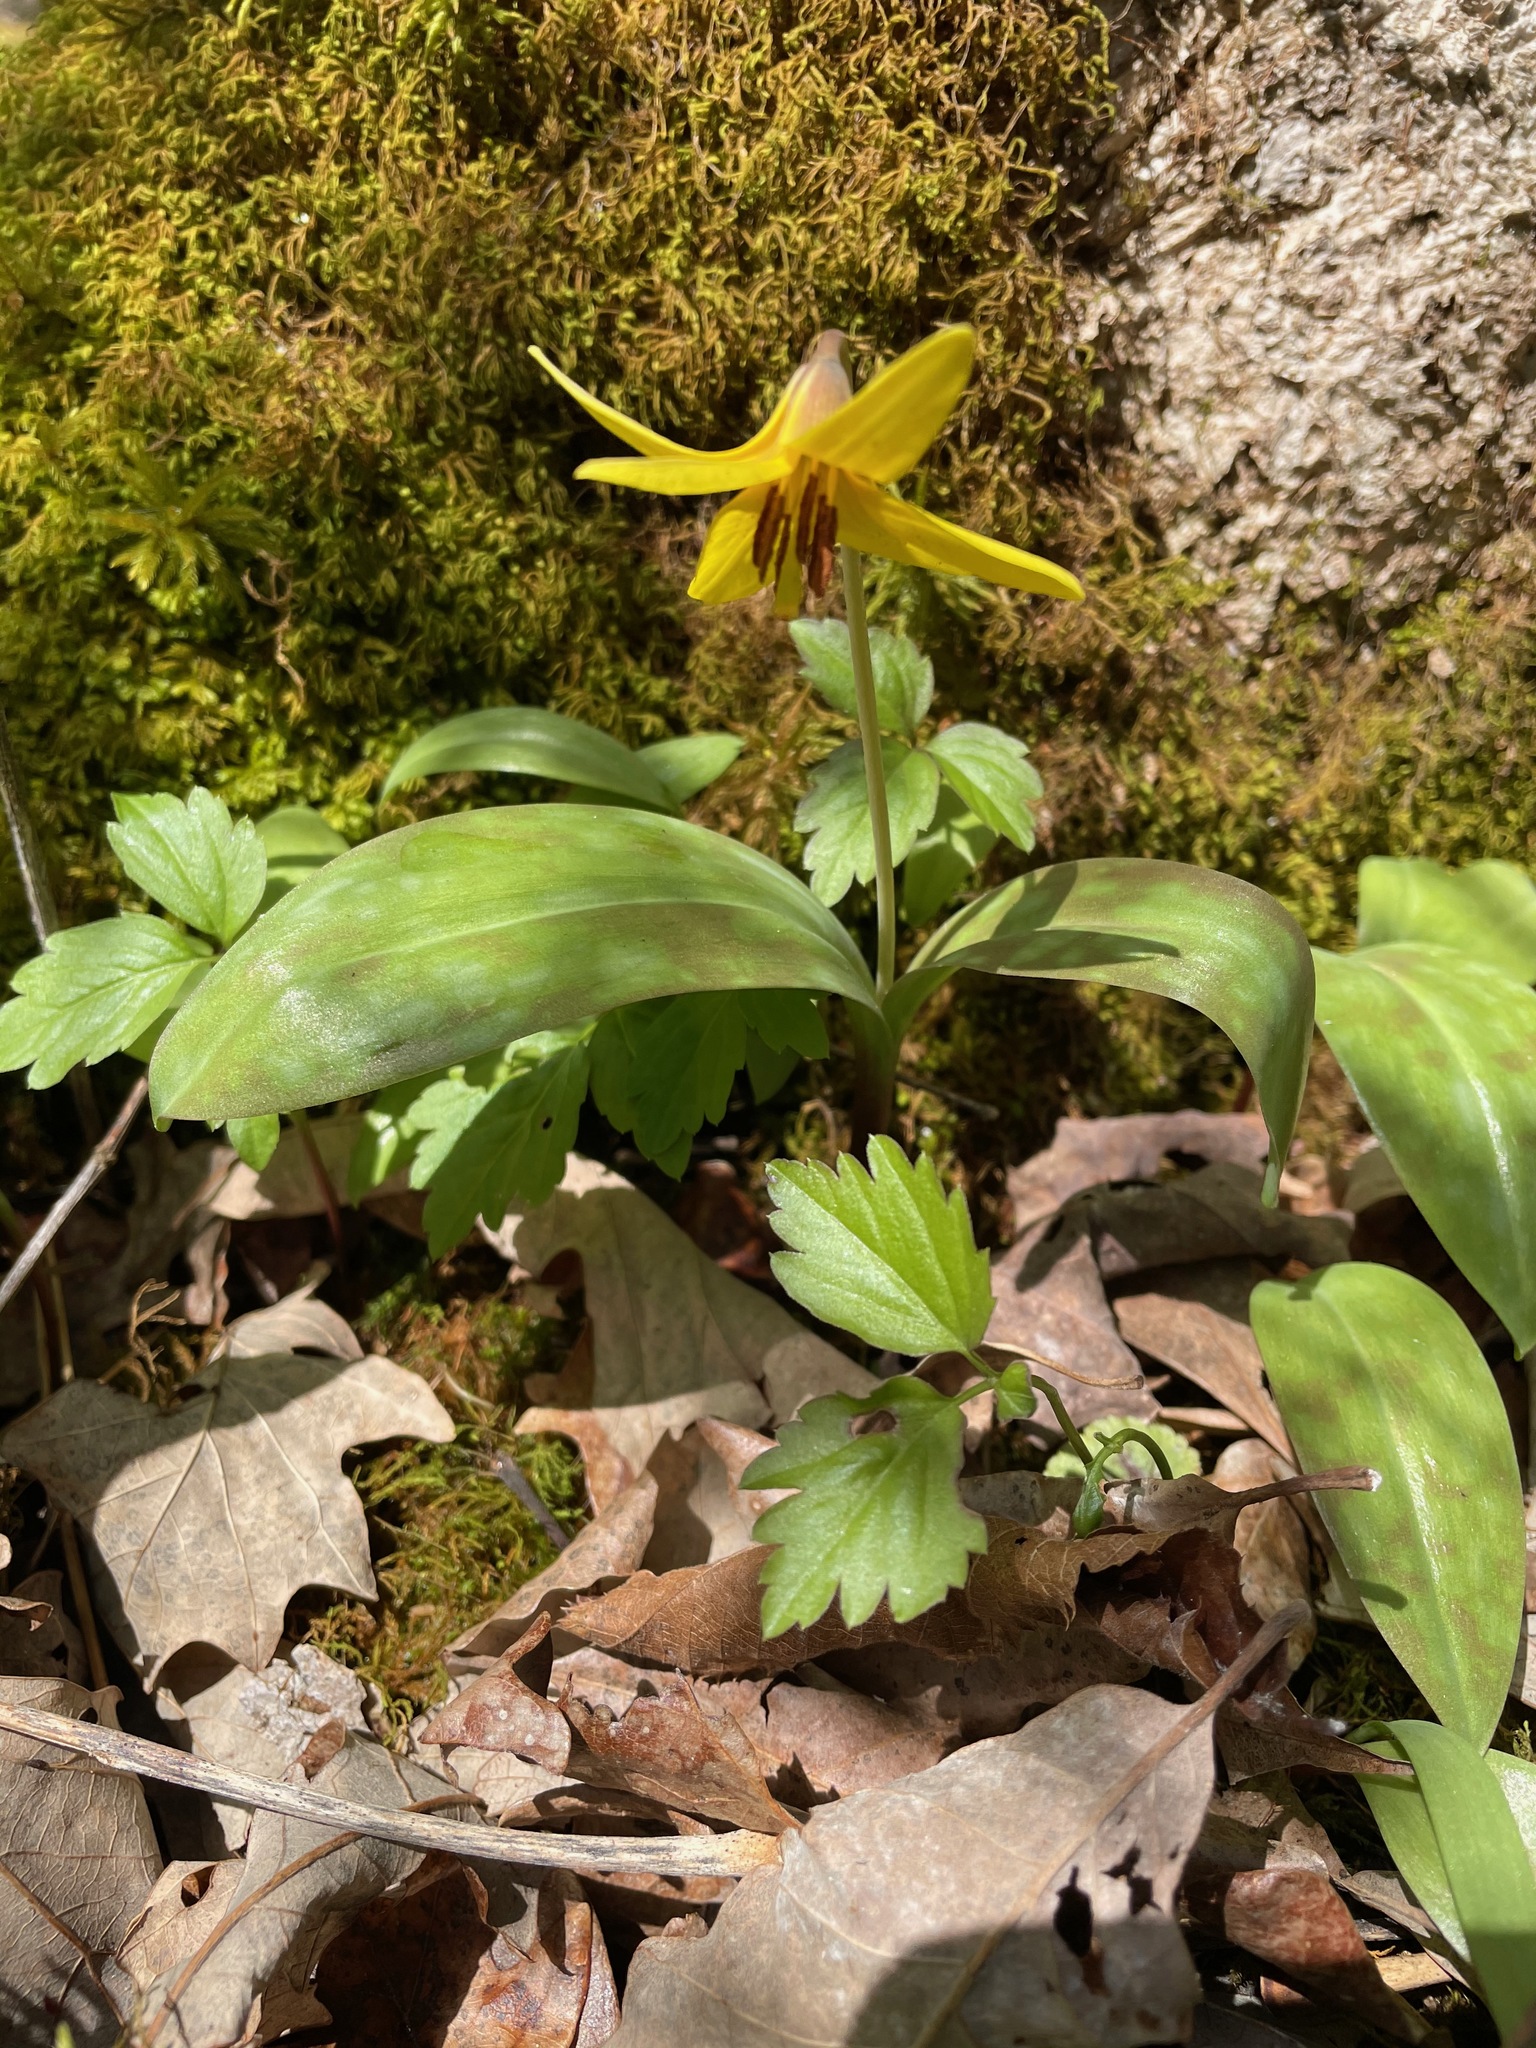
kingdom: Plantae
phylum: Tracheophyta
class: Liliopsida
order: Liliales
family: Liliaceae
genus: Erythronium
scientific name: Erythronium americanum
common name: Yellow adder's-tongue
